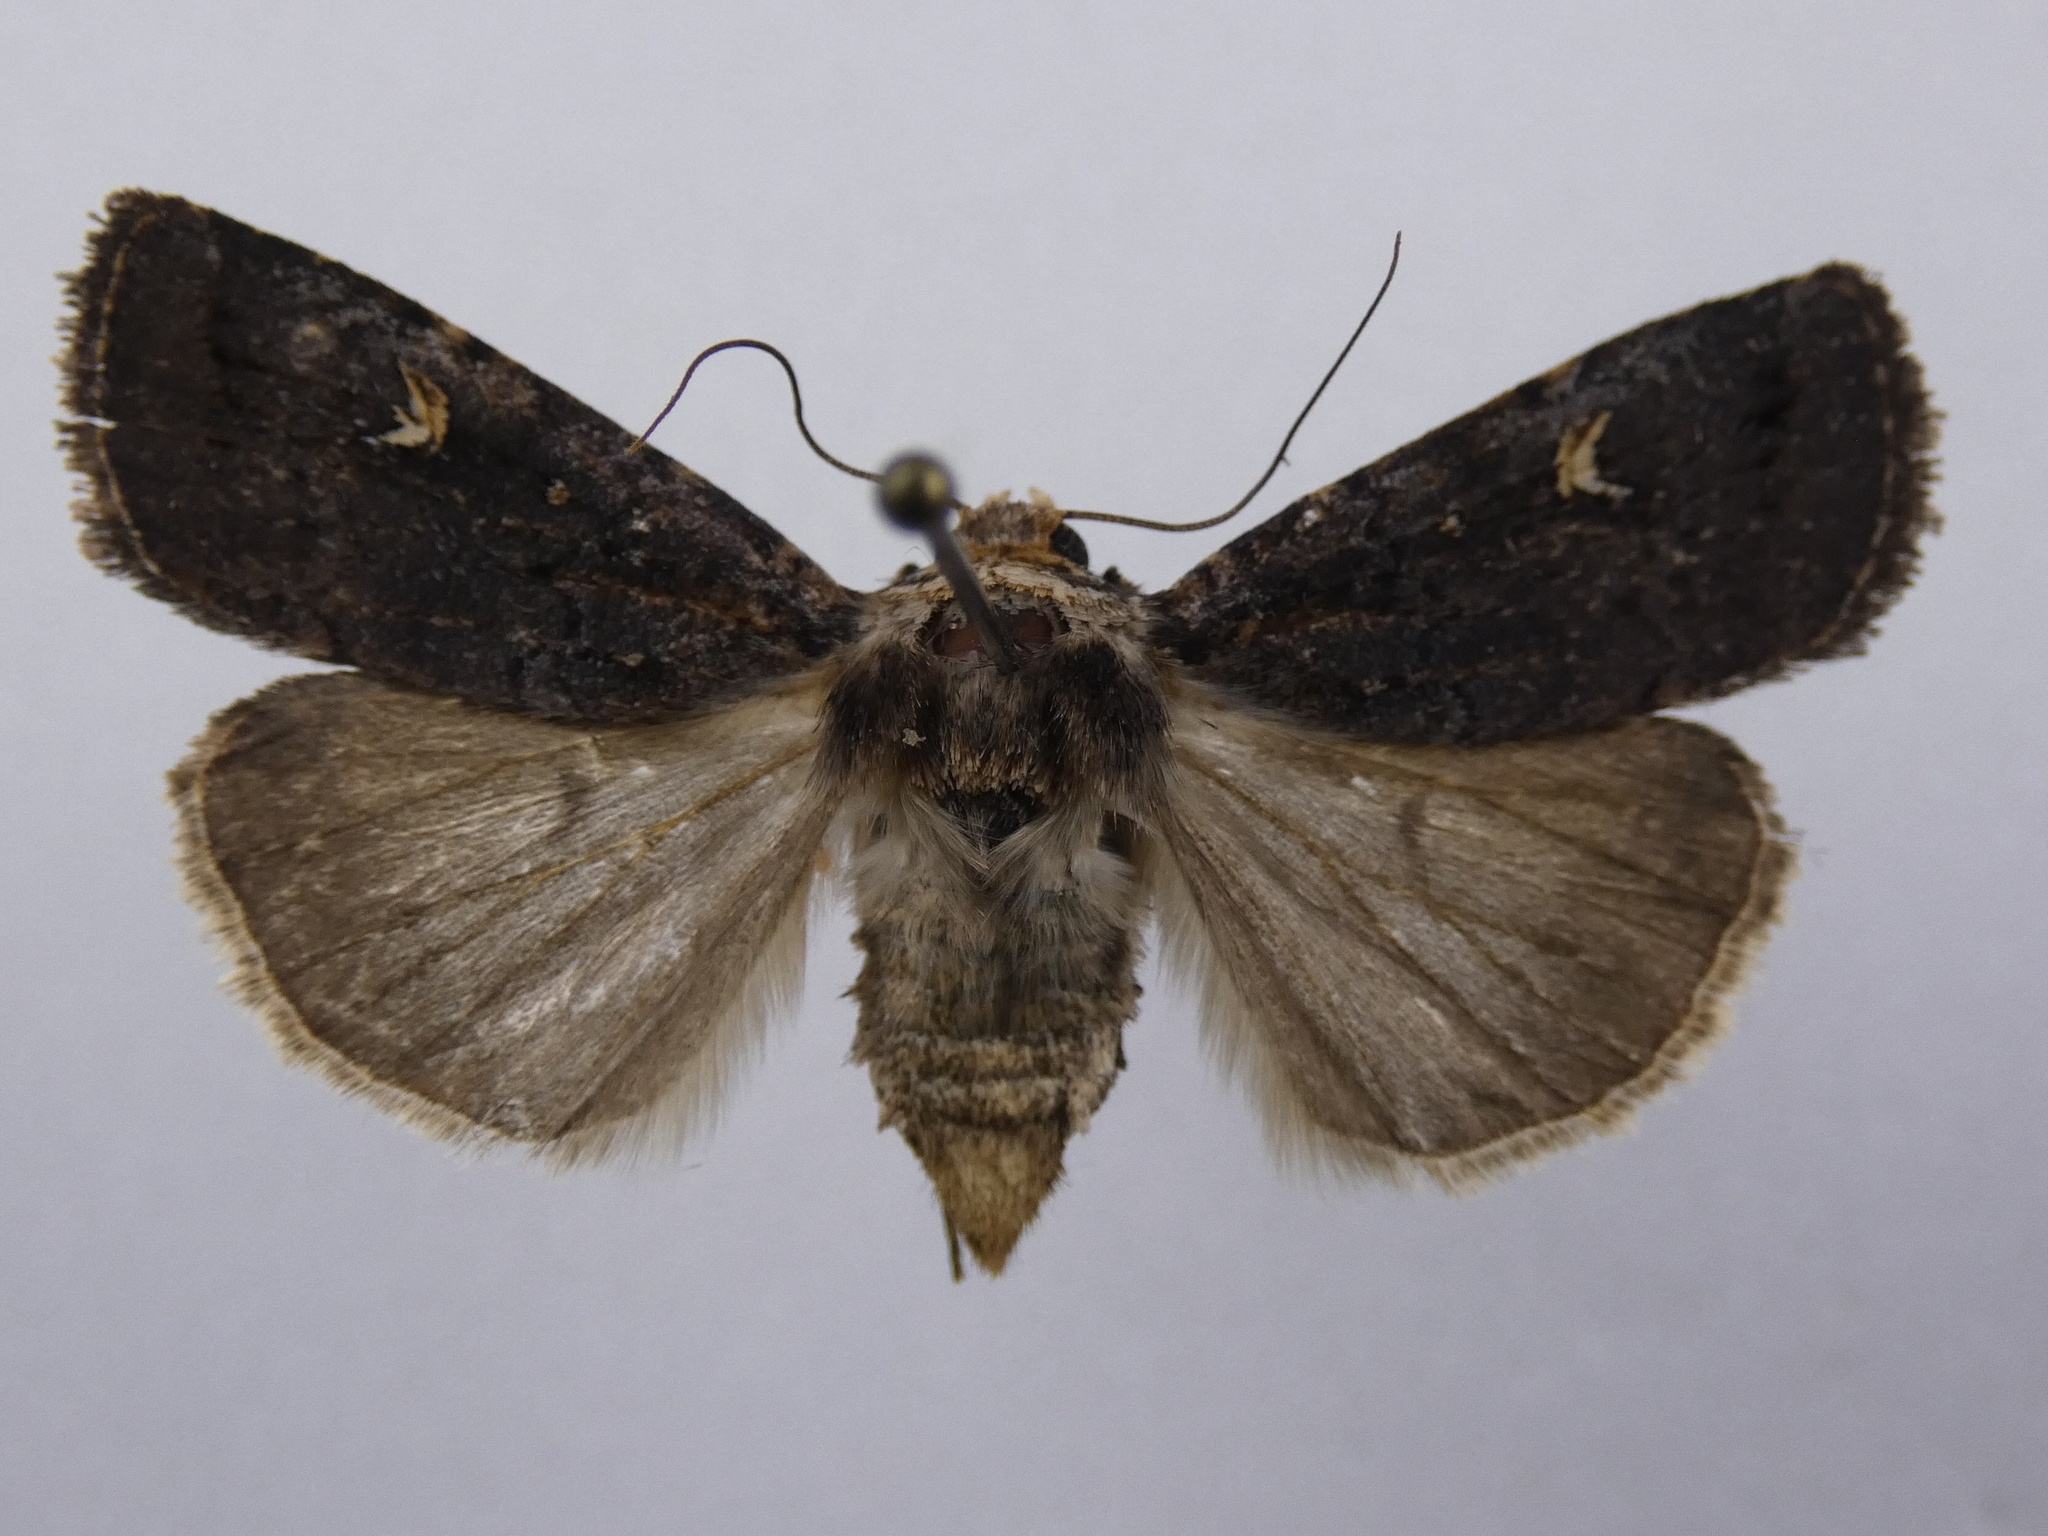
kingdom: Animalia
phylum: Arthropoda
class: Insecta
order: Lepidoptera
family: Noctuidae
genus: Proteuxoa
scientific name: Proteuxoa tetronycha
